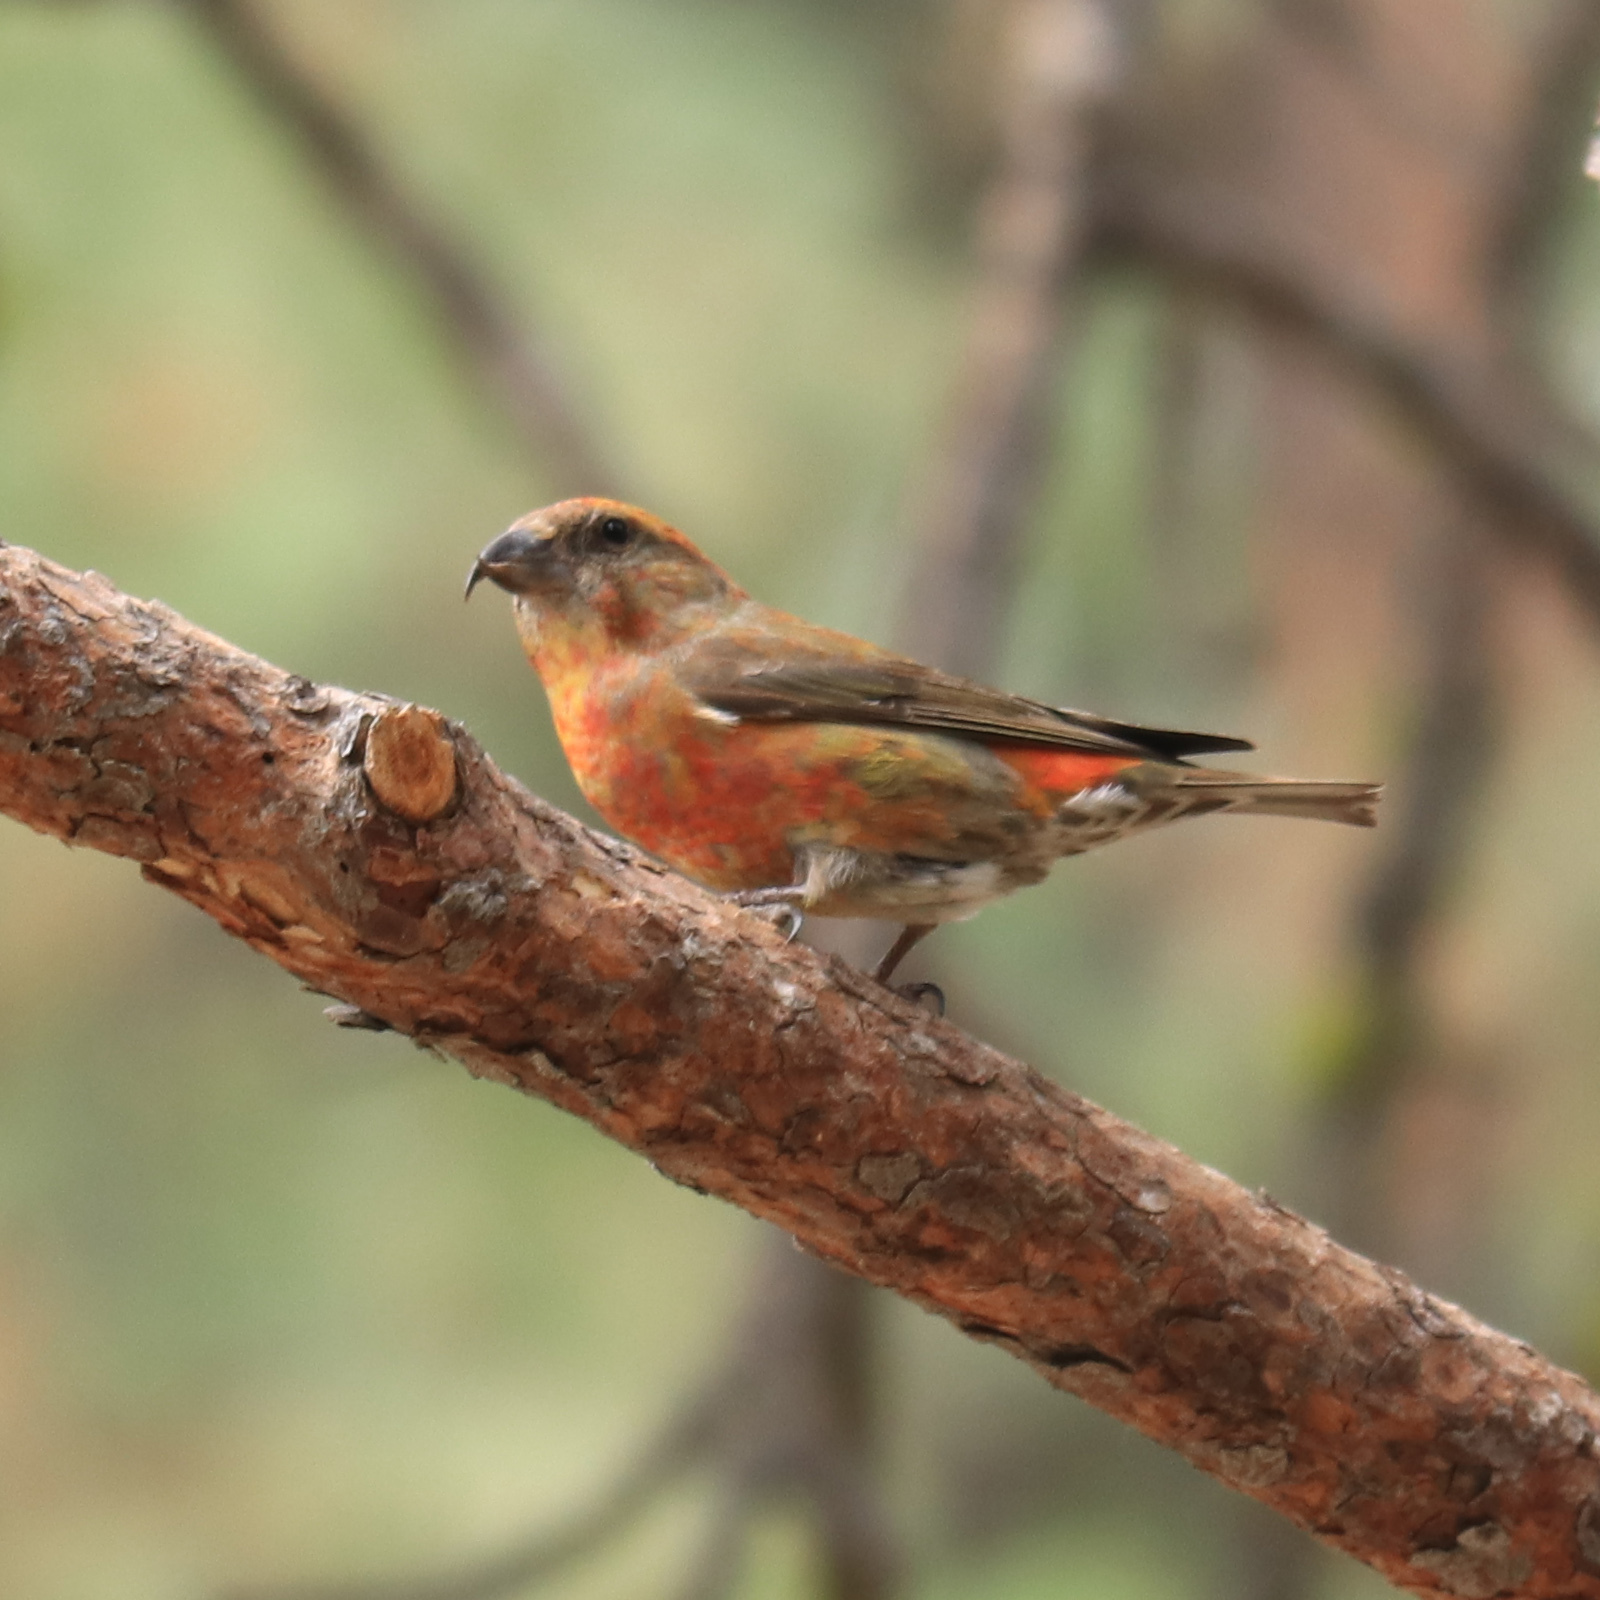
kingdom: Animalia
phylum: Chordata
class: Aves
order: Passeriformes
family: Fringillidae
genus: Loxia
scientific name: Loxia curvirostra
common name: Red crossbill
